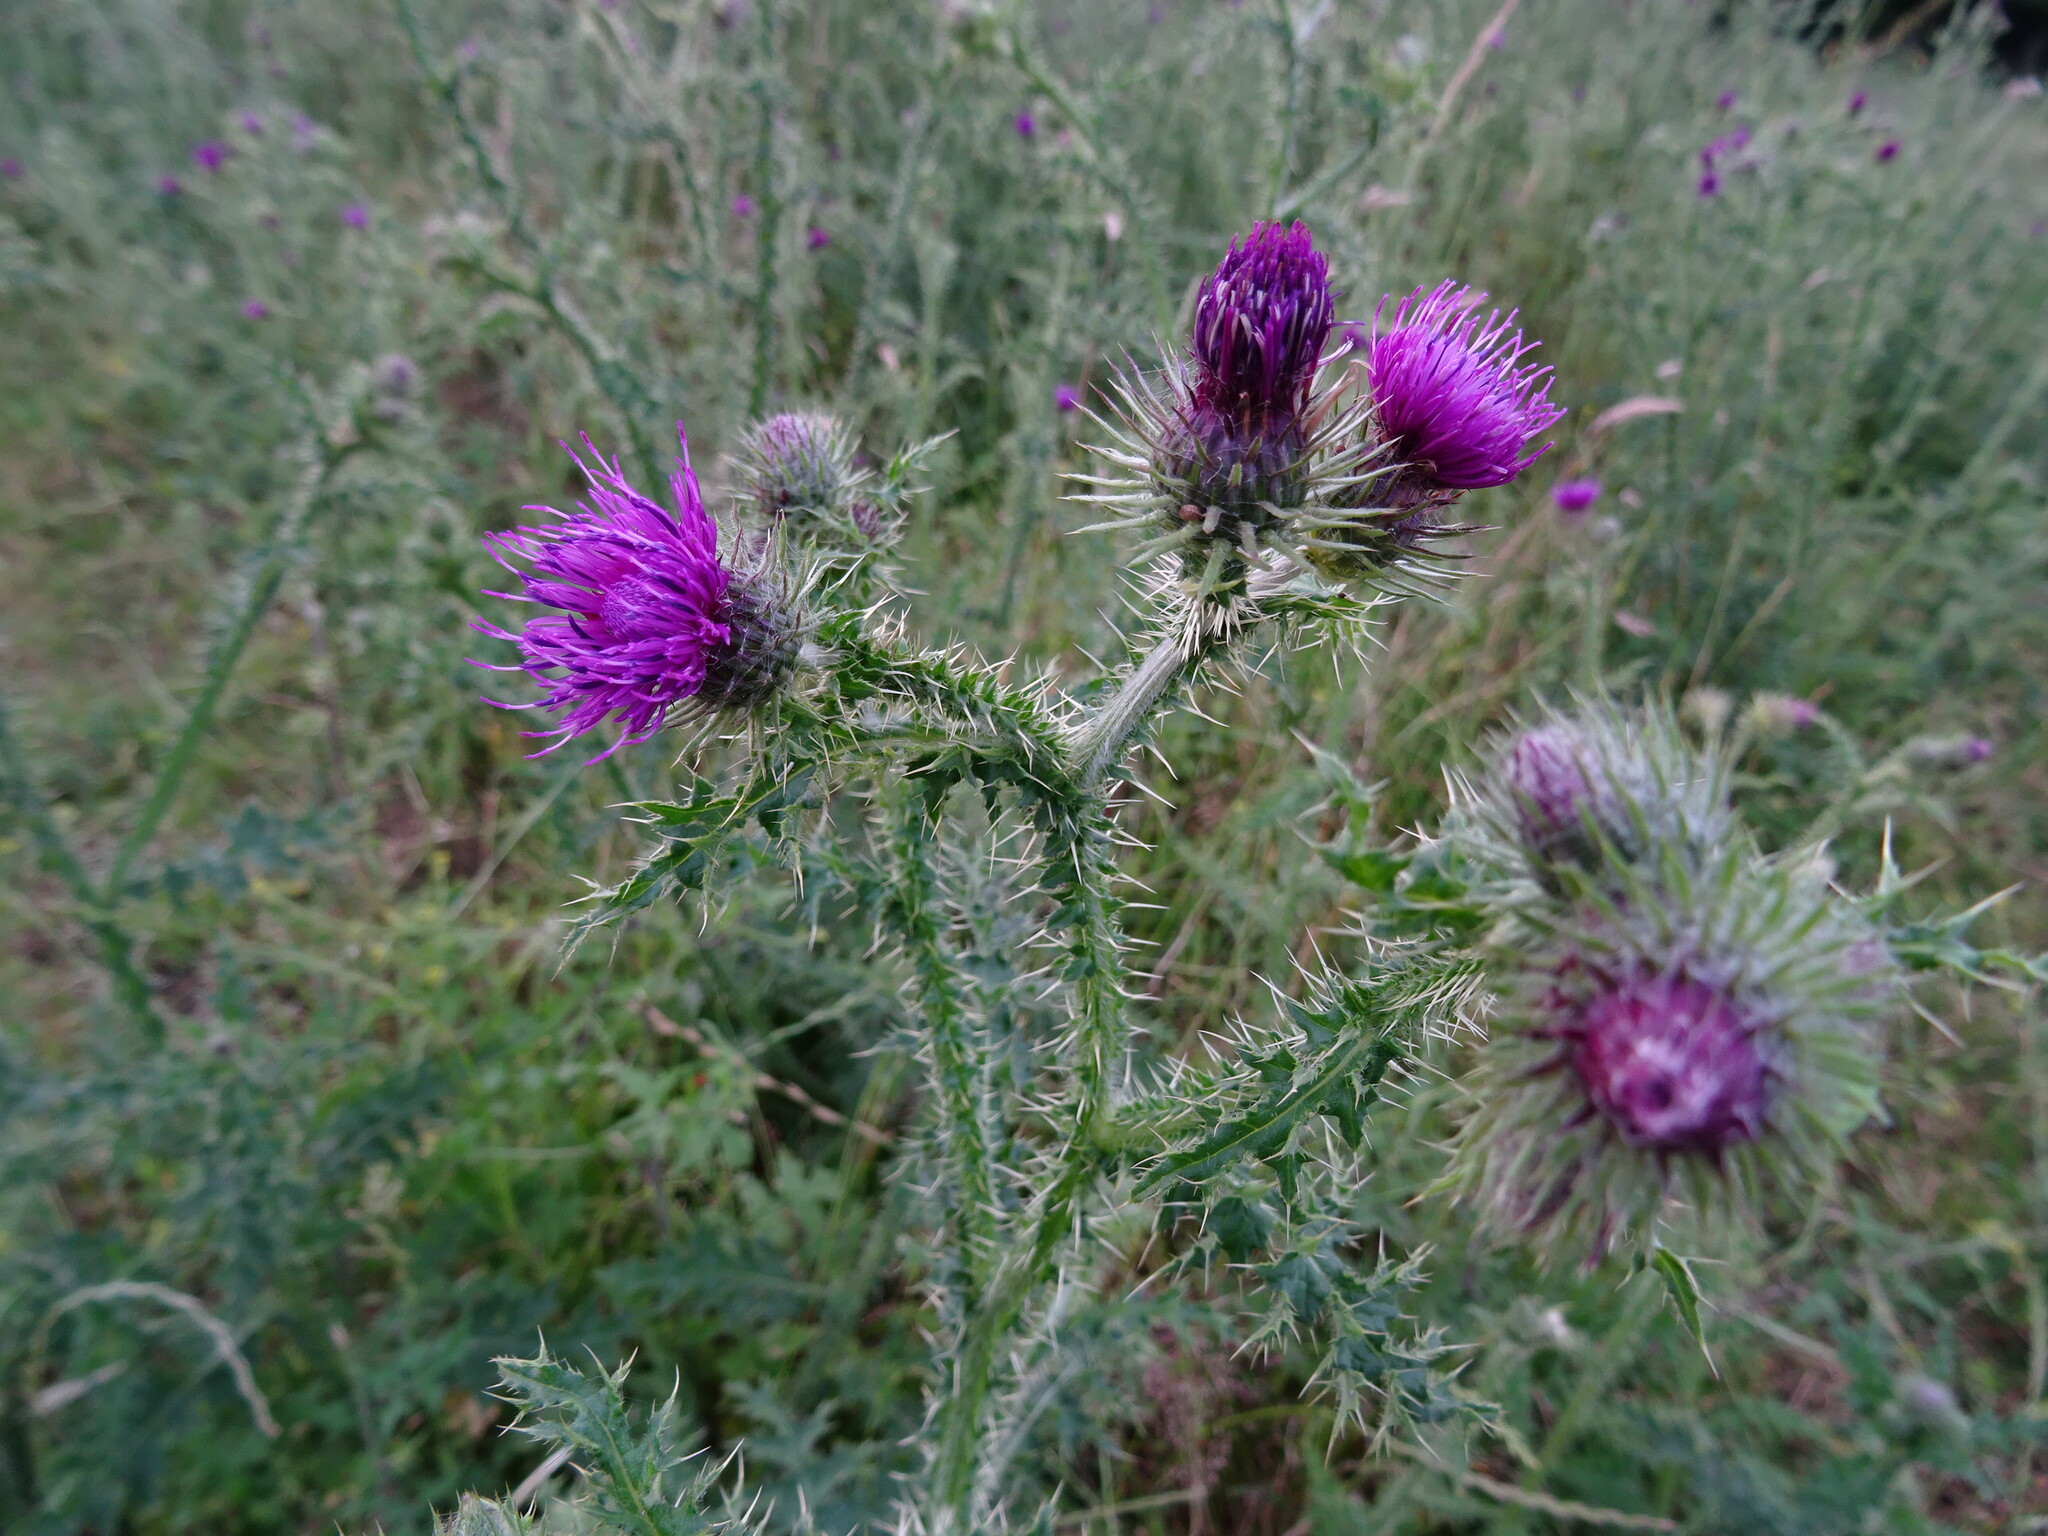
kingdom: Plantae
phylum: Tracheophyta
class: Magnoliopsida
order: Asterales
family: Asteraceae
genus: Carduus
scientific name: Carduus crispus
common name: Welted thistle
